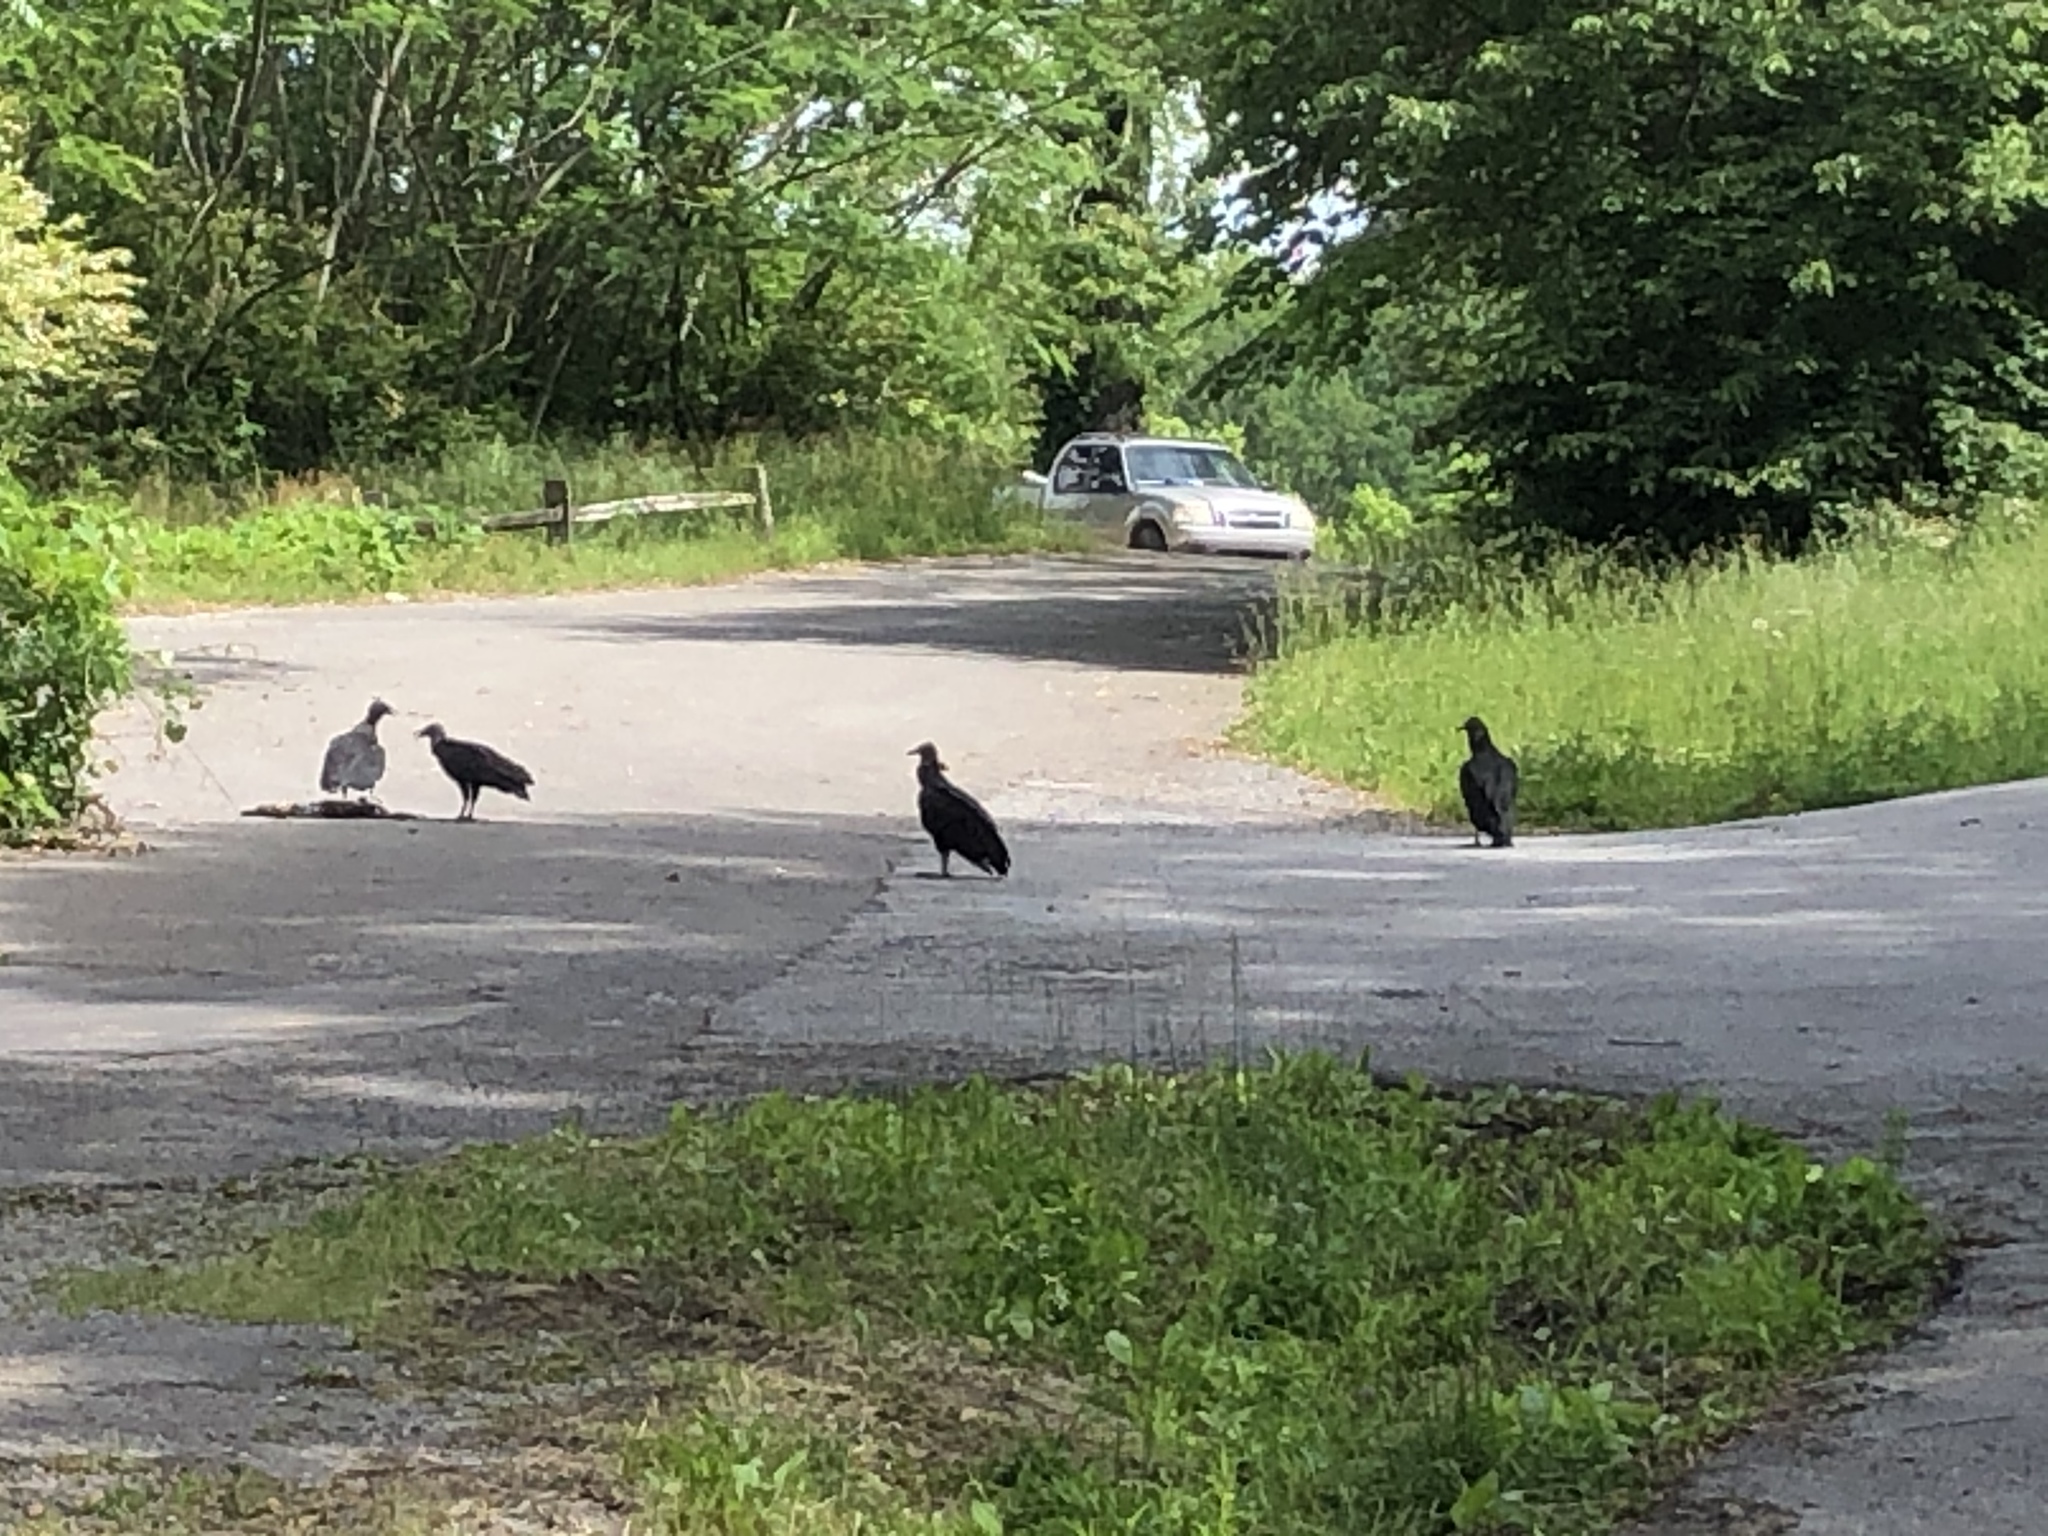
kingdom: Animalia
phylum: Chordata
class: Aves
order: Accipitriformes
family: Cathartidae
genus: Coragyps
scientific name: Coragyps atratus
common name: Black vulture
